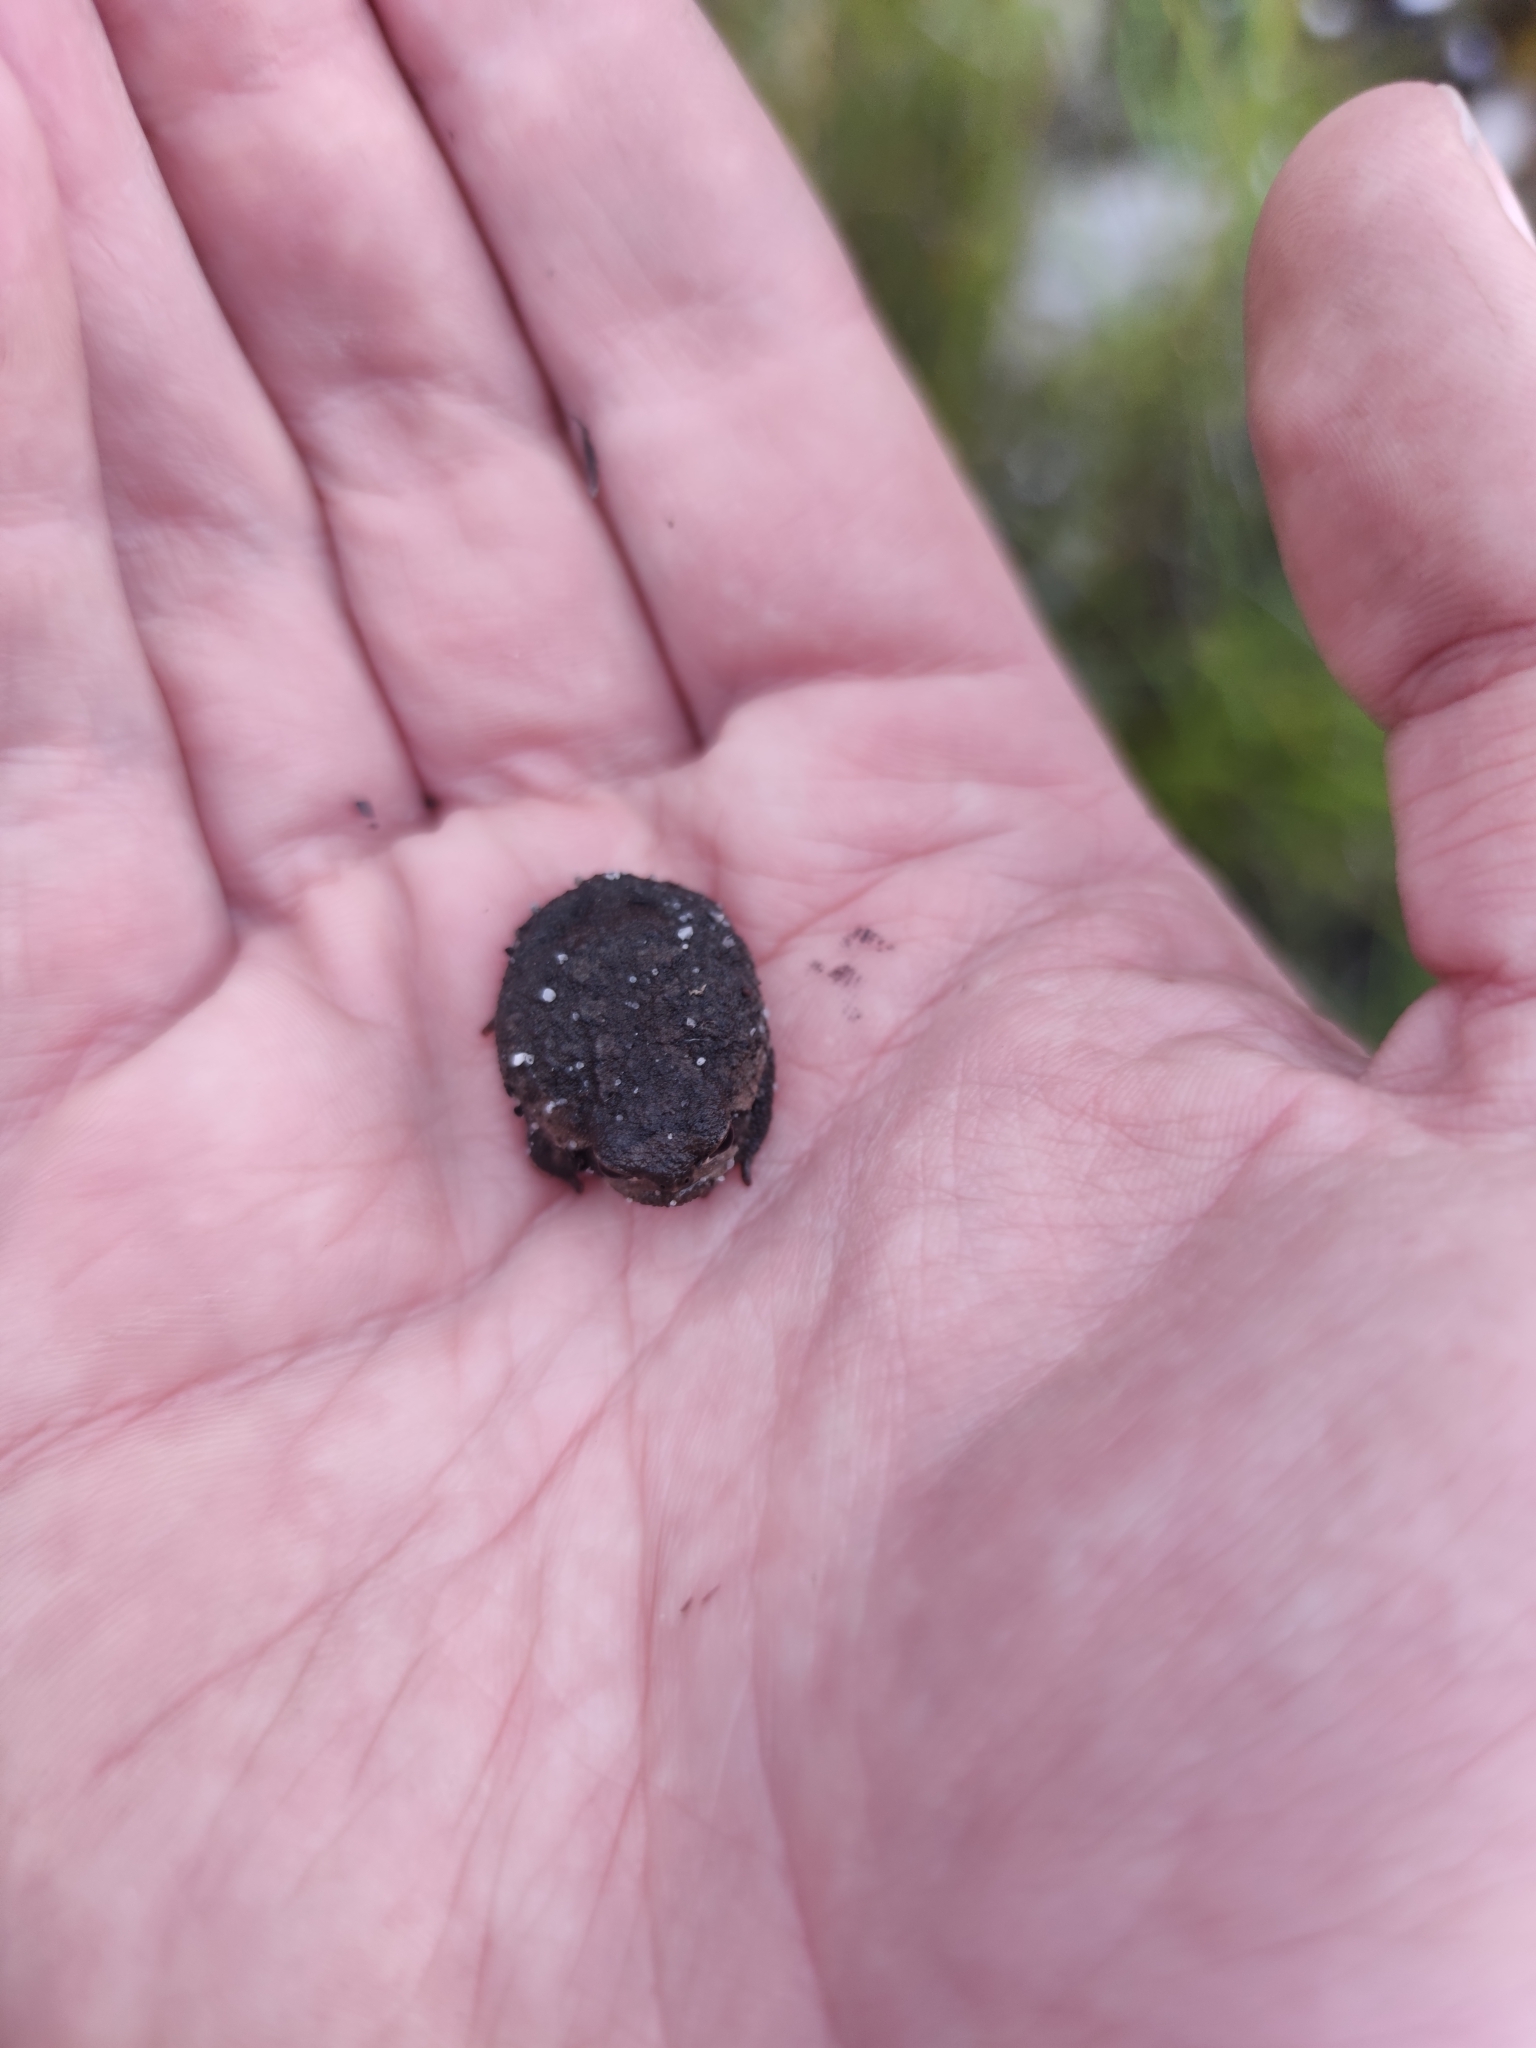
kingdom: Animalia
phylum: Chordata
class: Amphibia
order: Anura
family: Brevicipitidae
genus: Breviceps
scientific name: Breviceps montanus
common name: Mountain rain frog
